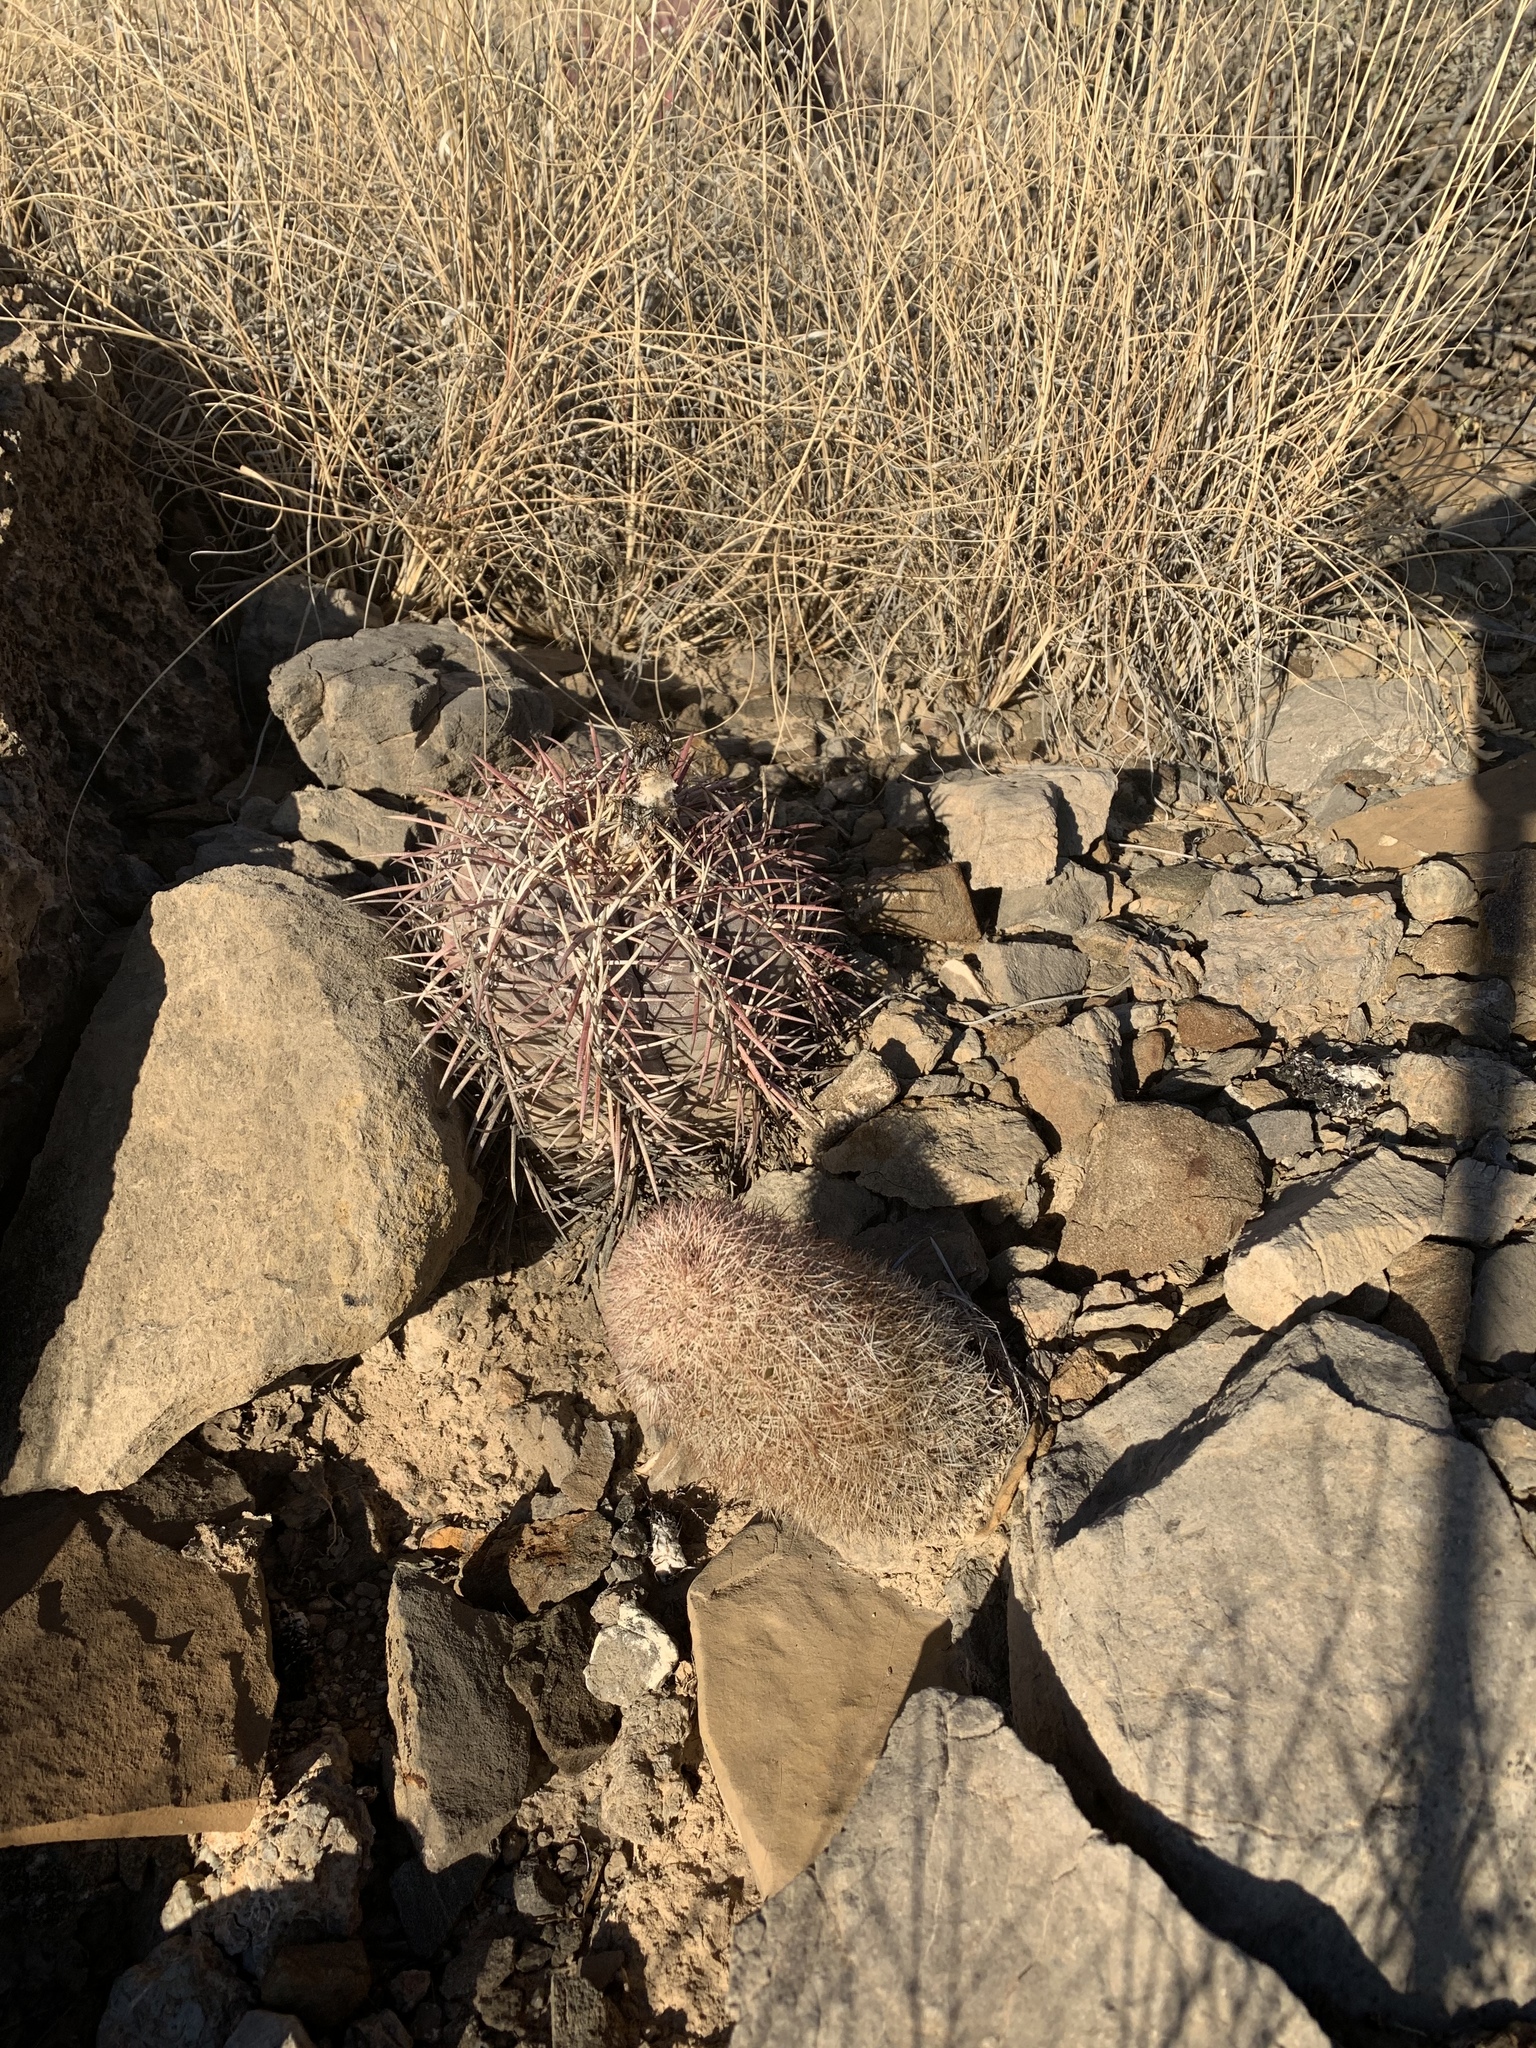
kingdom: Plantae
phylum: Tracheophyta
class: Magnoliopsida
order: Caryophyllales
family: Cactaceae
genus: Echinocactus
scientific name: Echinocactus horizonthalonius
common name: Devilshead
